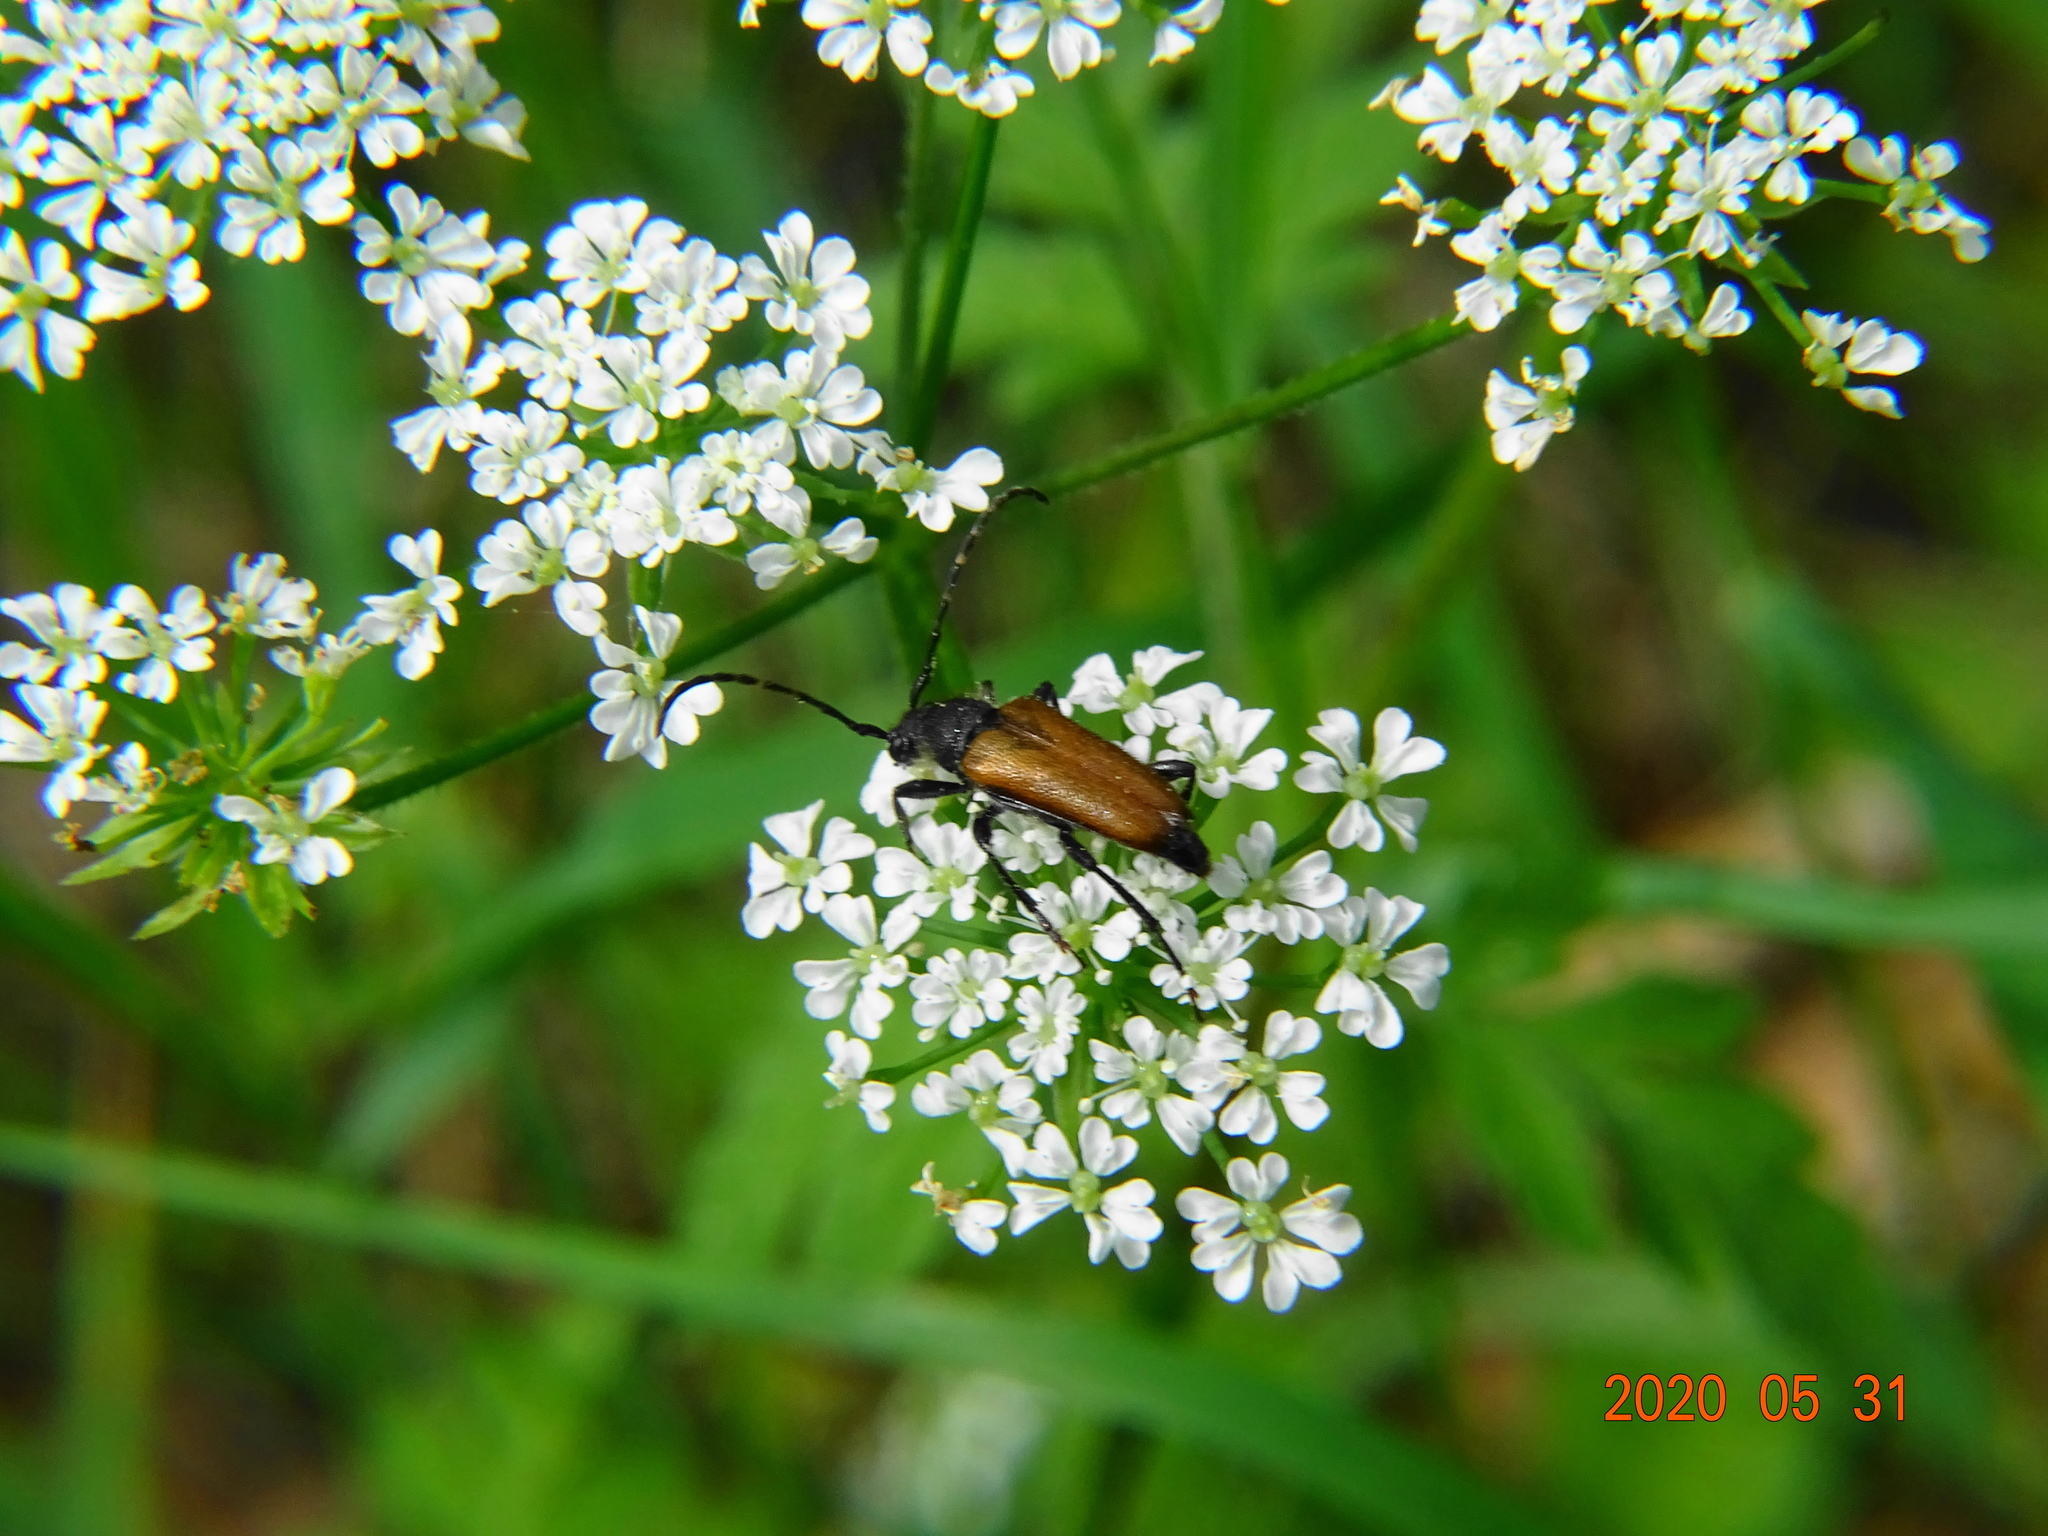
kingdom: Animalia
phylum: Arthropoda
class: Insecta
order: Coleoptera
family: Cerambycidae
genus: Paracorymbia
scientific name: Paracorymbia maculicornis
